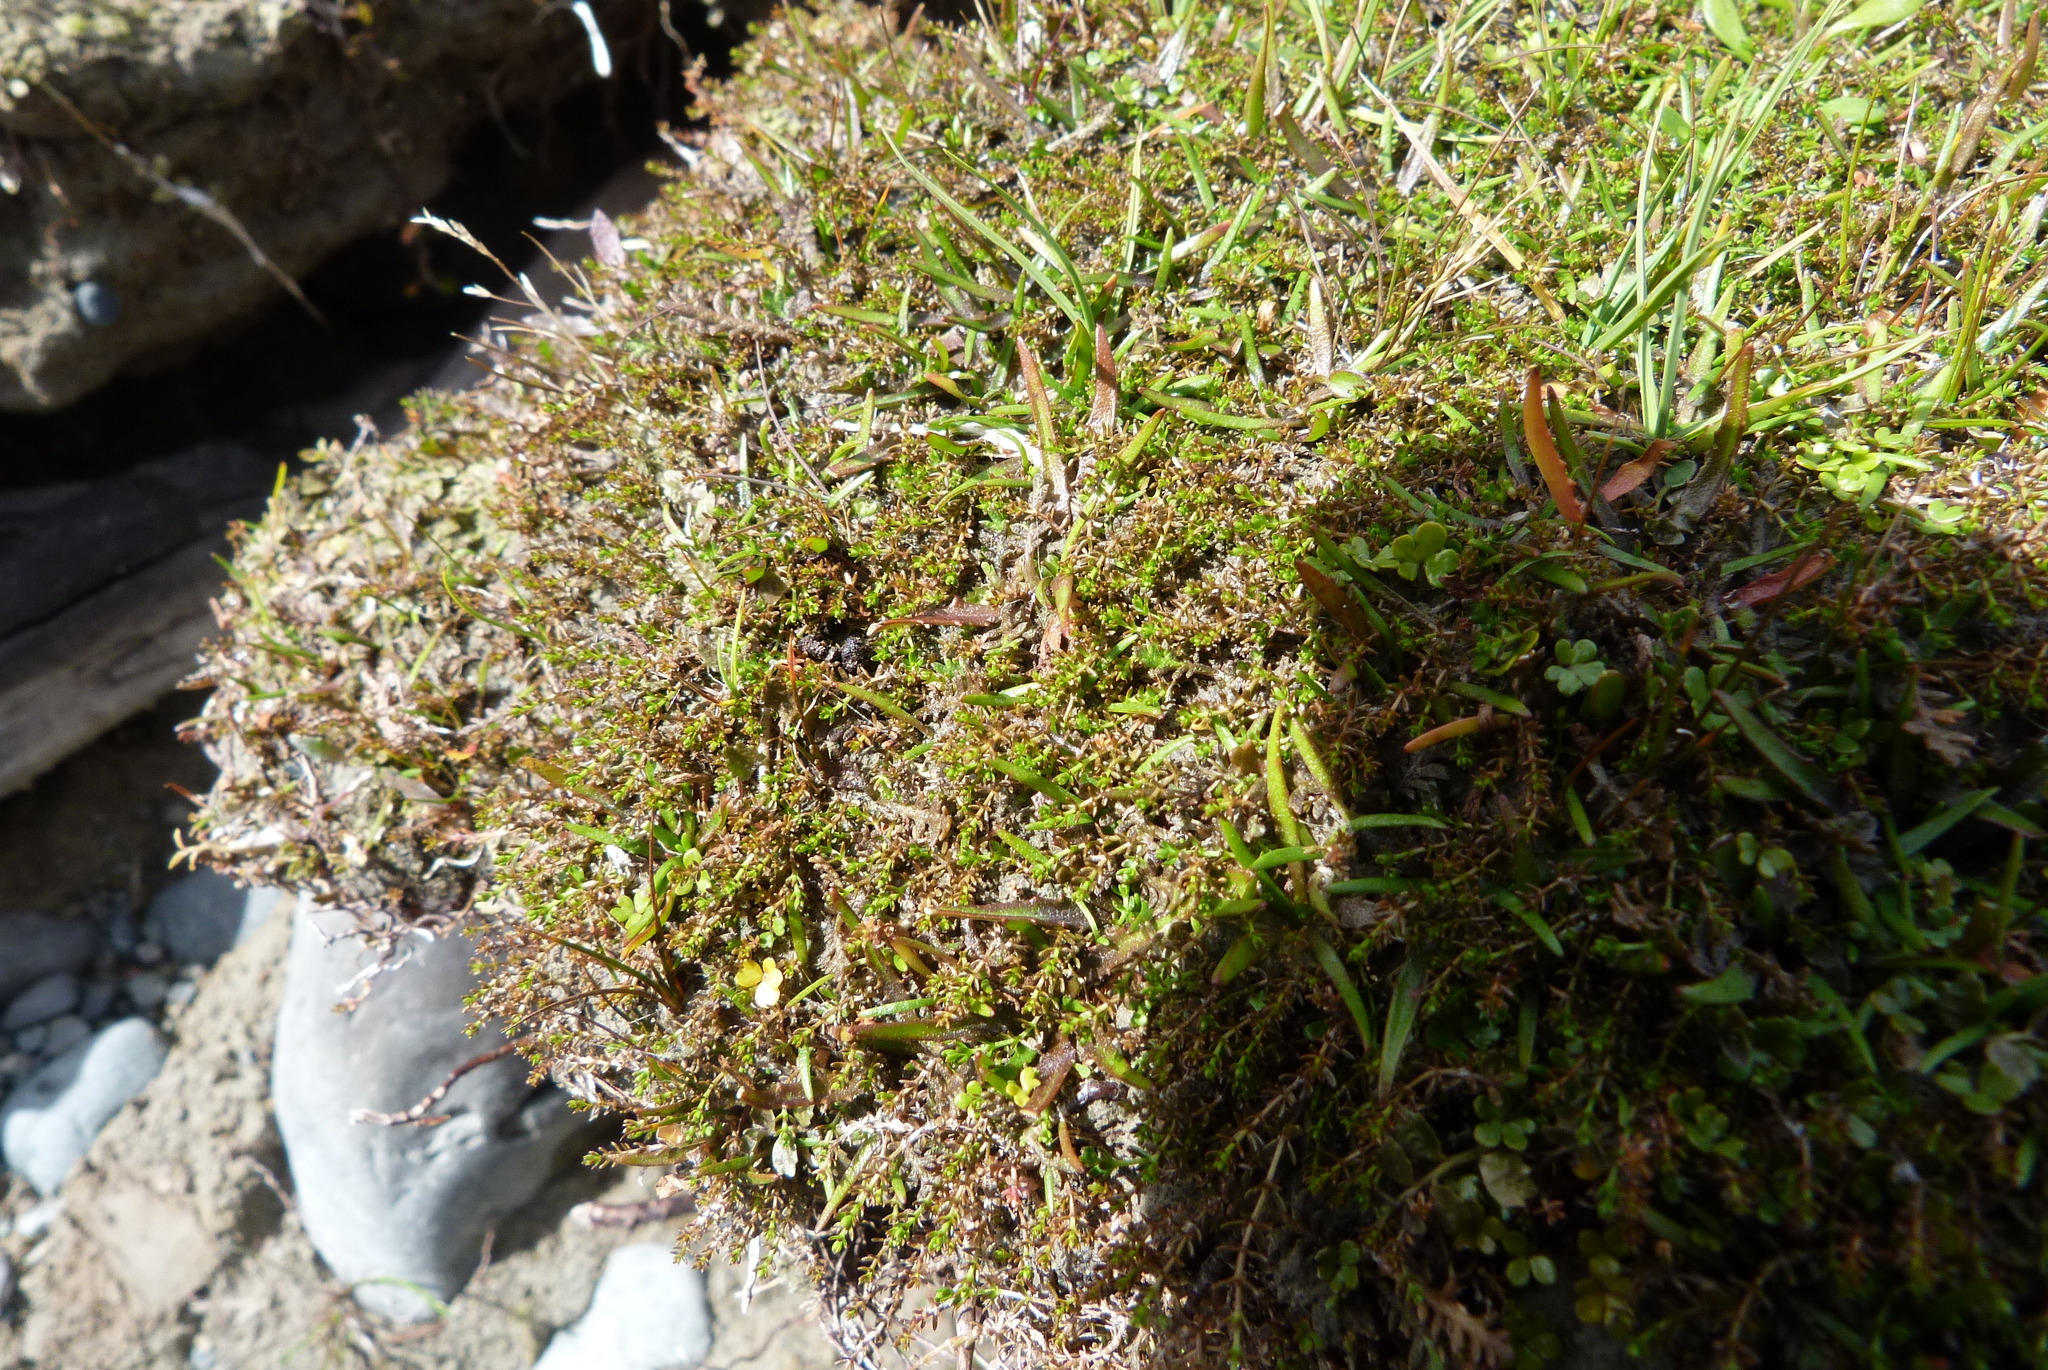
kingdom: Plantae
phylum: Tracheophyta
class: Magnoliopsida
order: Gentianales
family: Rubiaceae
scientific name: Rubiaceae
